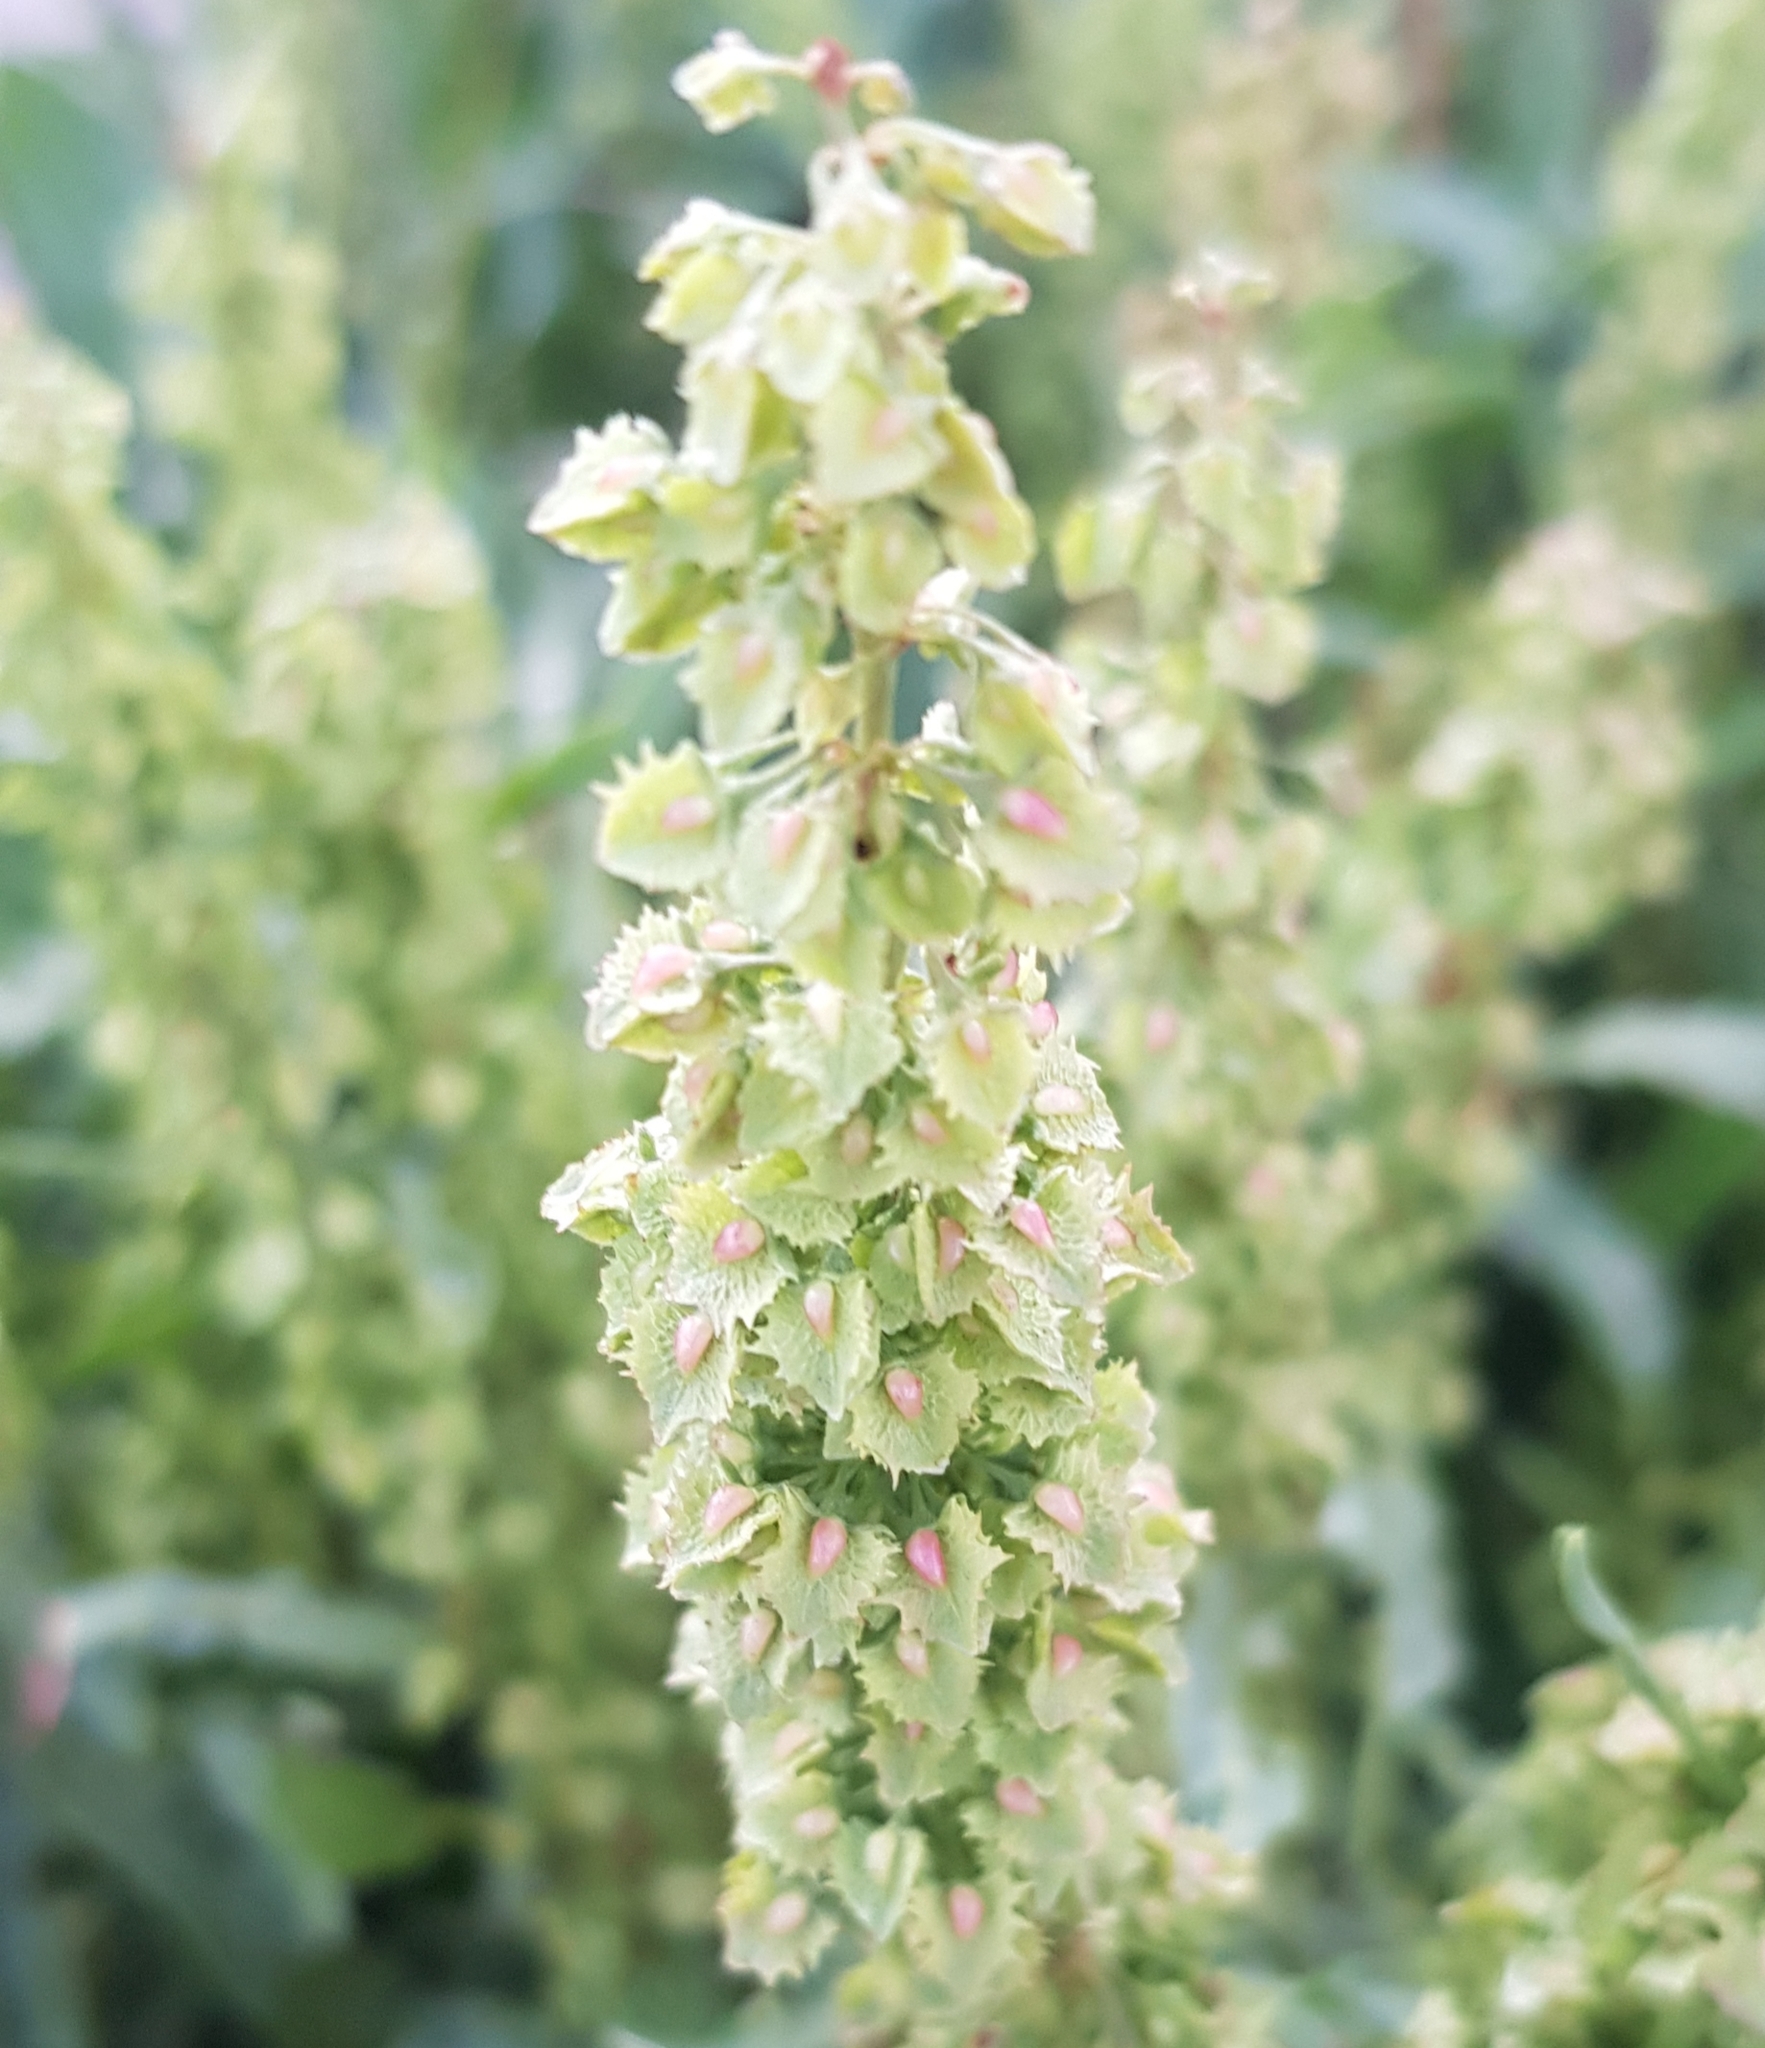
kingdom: Plantae
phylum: Tracheophyta
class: Magnoliopsida
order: Caryophyllales
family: Polygonaceae
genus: Rumex
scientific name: Rumex stenophyllus
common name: Narrowleaf dock
